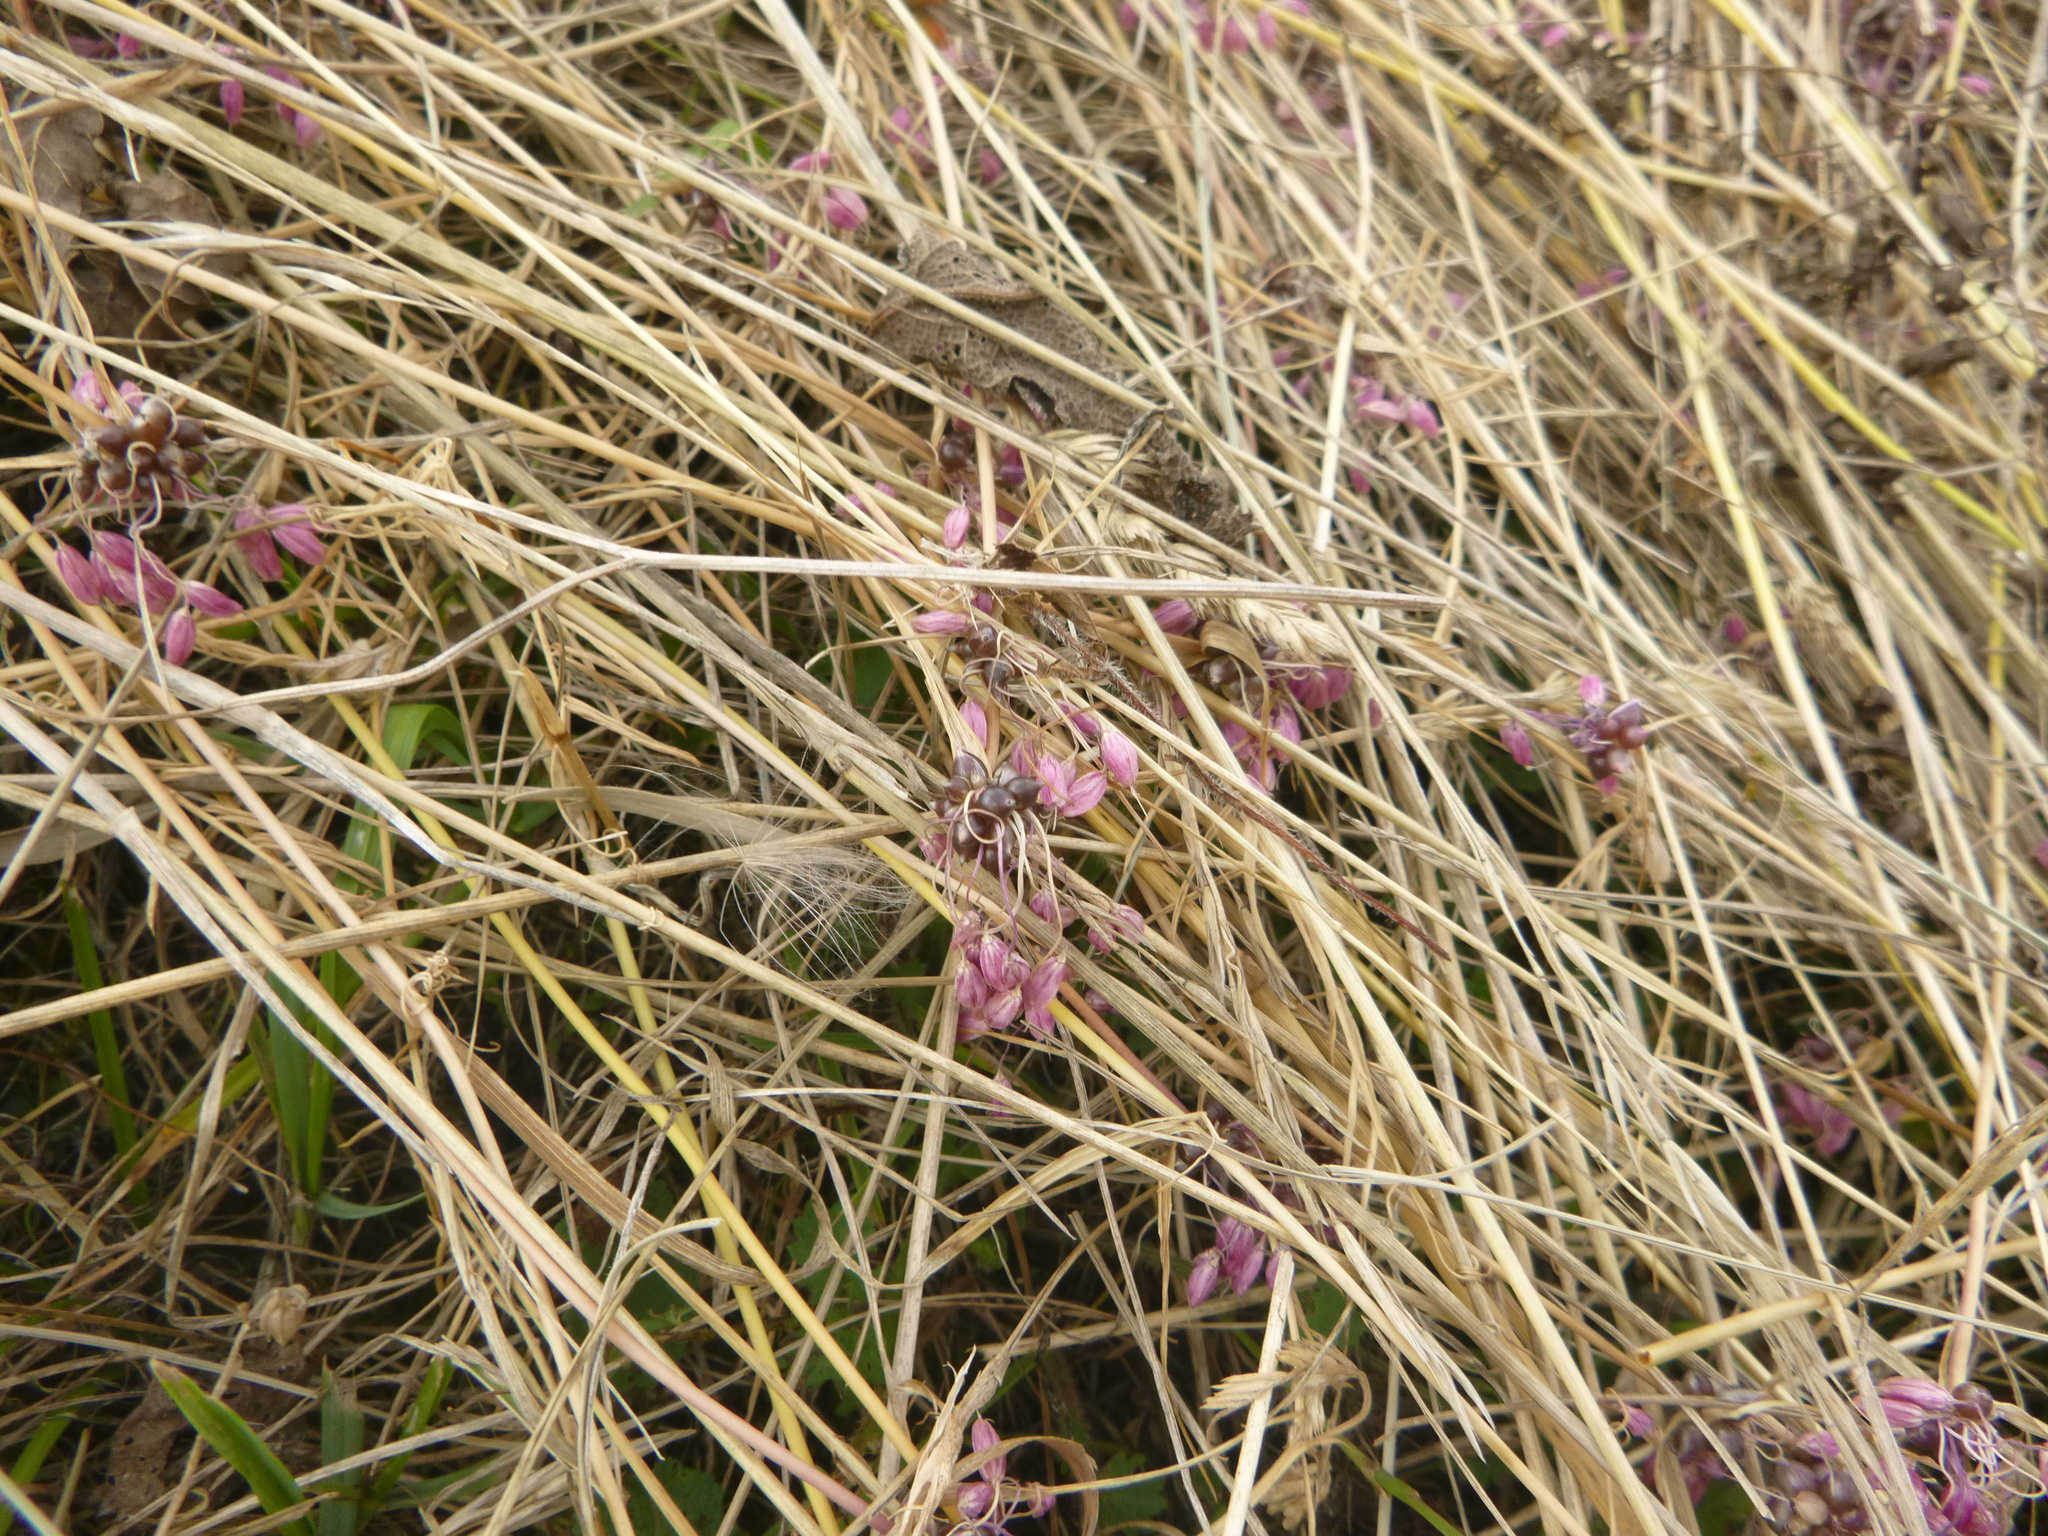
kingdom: Plantae
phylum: Tracheophyta
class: Liliopsida
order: Asparagales
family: Amaryllidaceae
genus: Allium
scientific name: Allium carinatum
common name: Keeled garlic
